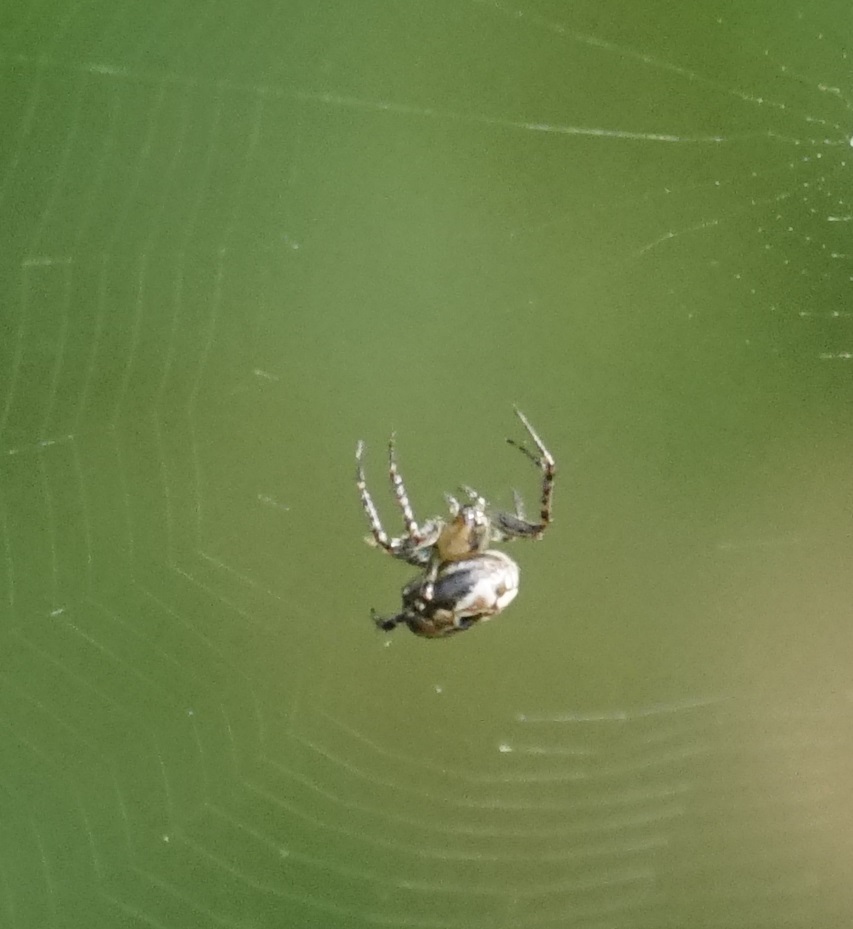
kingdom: Animalia
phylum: Arthropoda
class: Arachnida
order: Araneae
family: Araneidae
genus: Plebs
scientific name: Plebs eburnus
